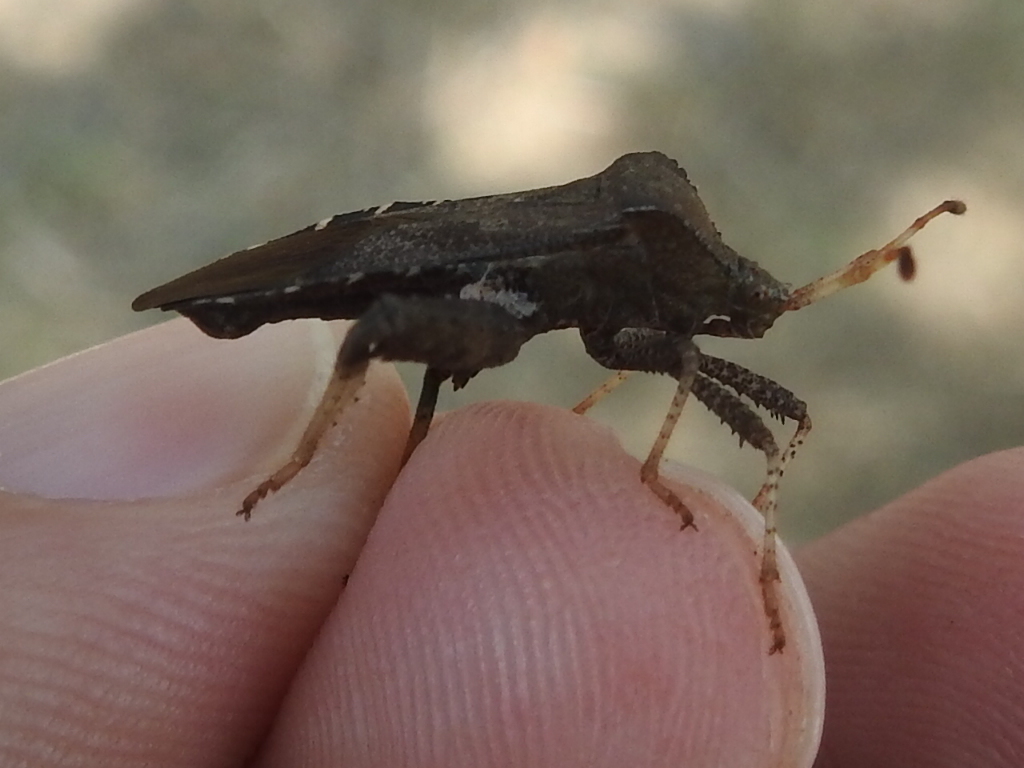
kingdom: Animalia
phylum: Arthropoda
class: Insecta
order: Hemiptera
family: Coreidae
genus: Euthochtha
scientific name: Euthochtha galeator
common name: Helmeted squash bug
